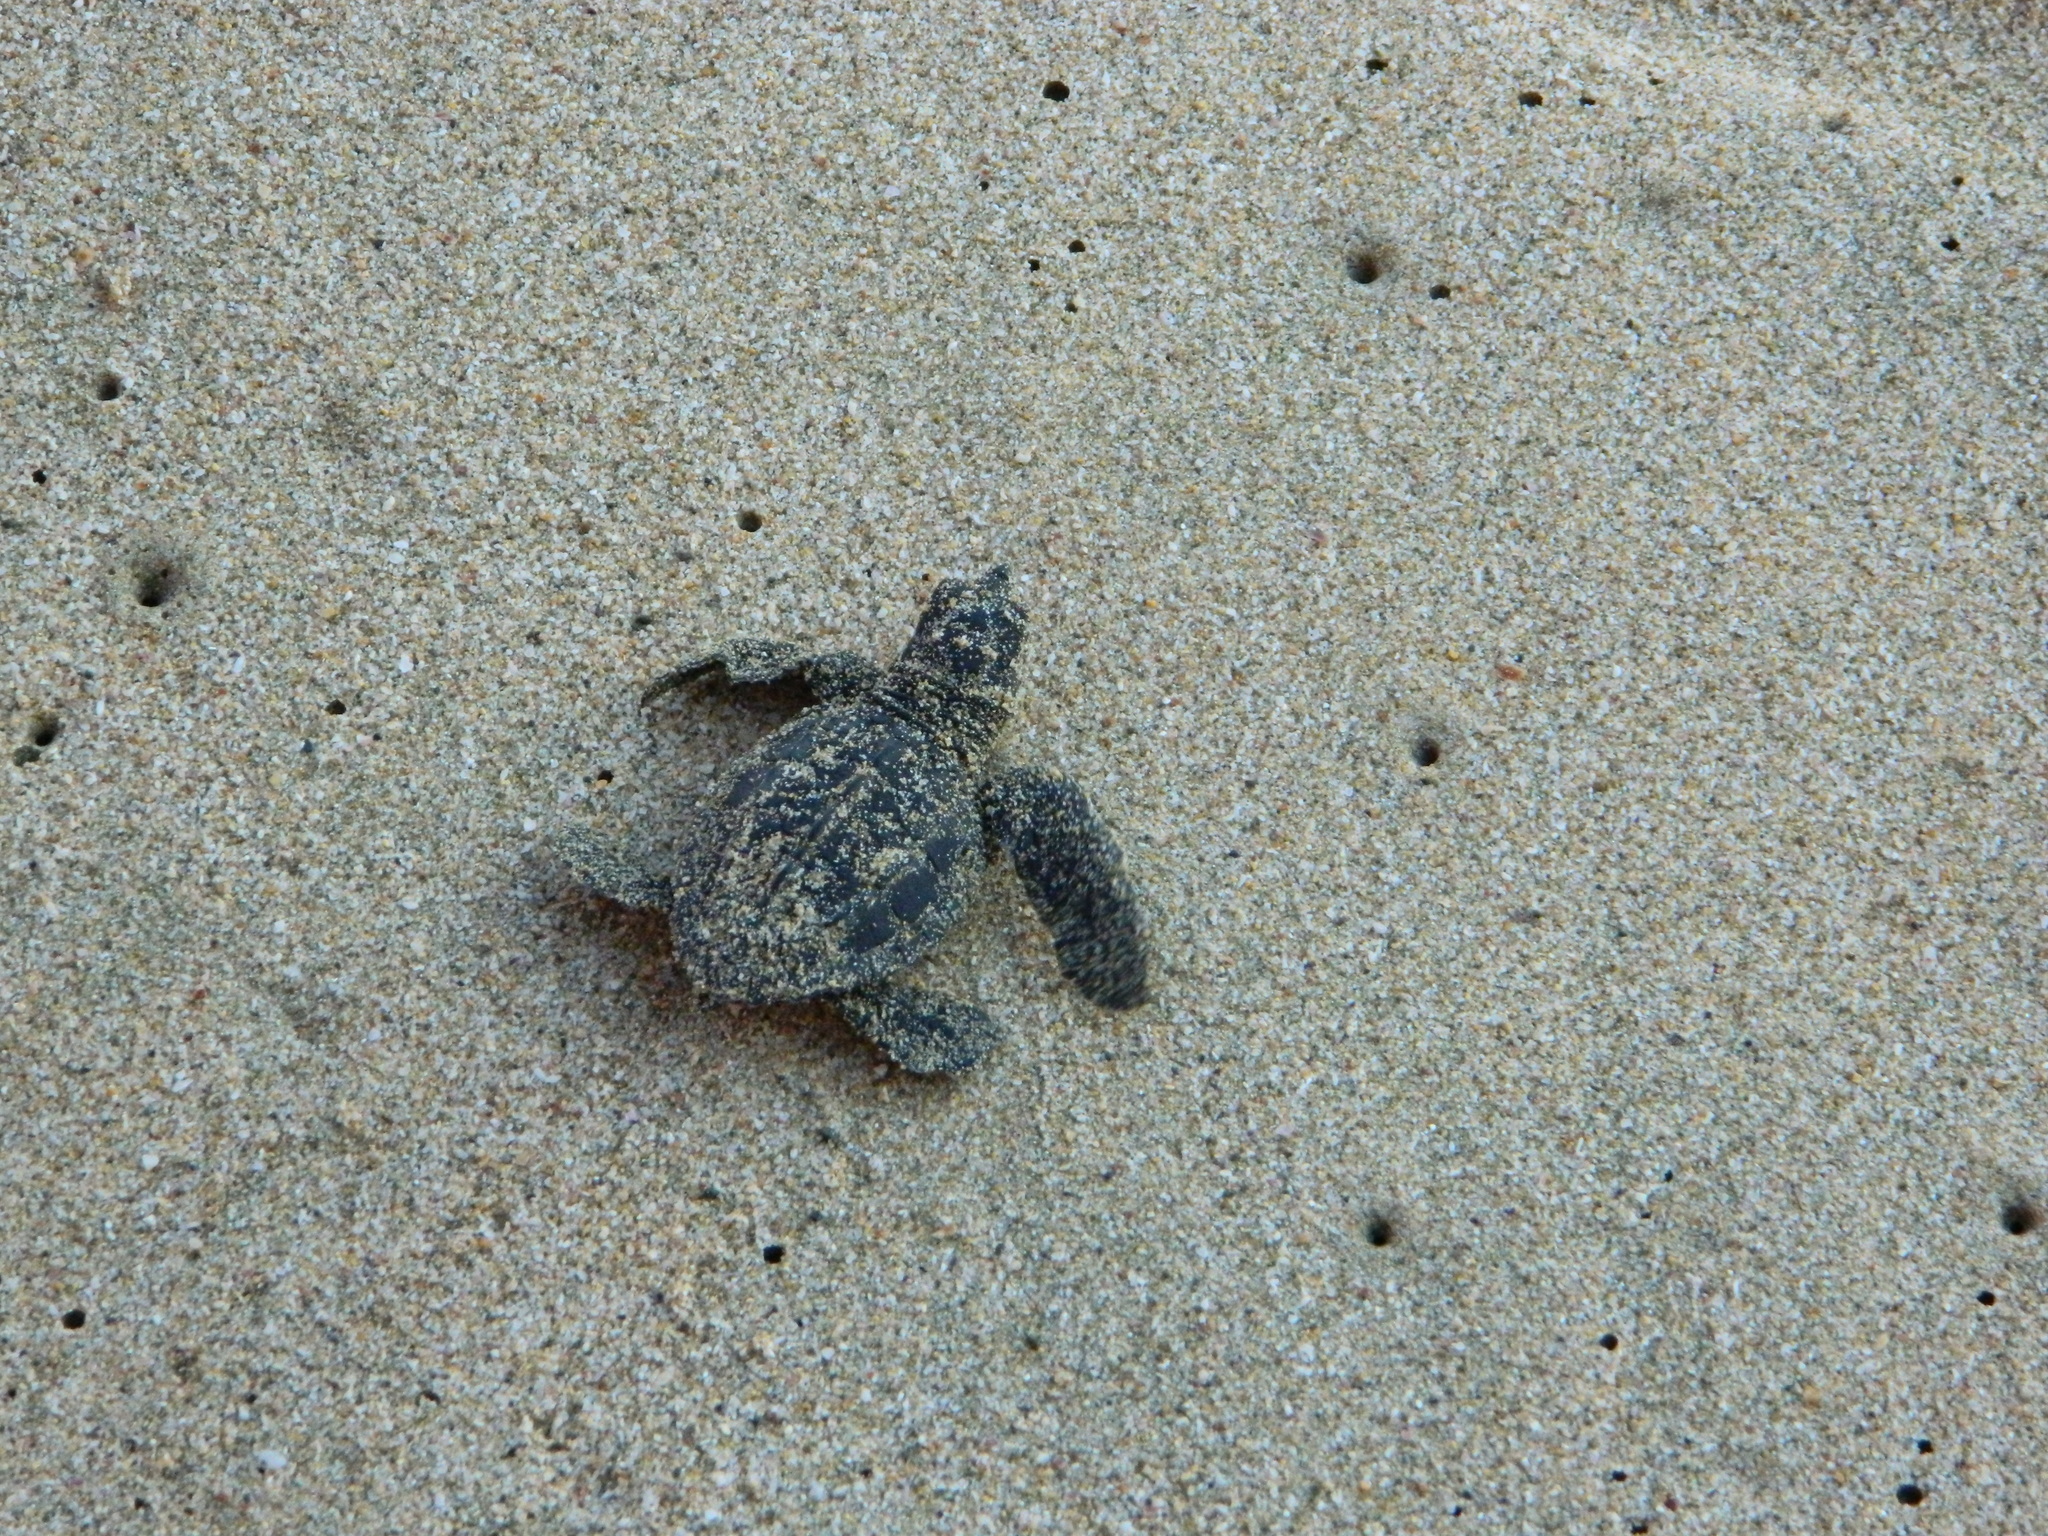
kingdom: Animalia
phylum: Chordata
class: Testudines
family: Cheloniidae
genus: Lepidochelys
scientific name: Lepidochelys olivacea
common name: Olive ridley
